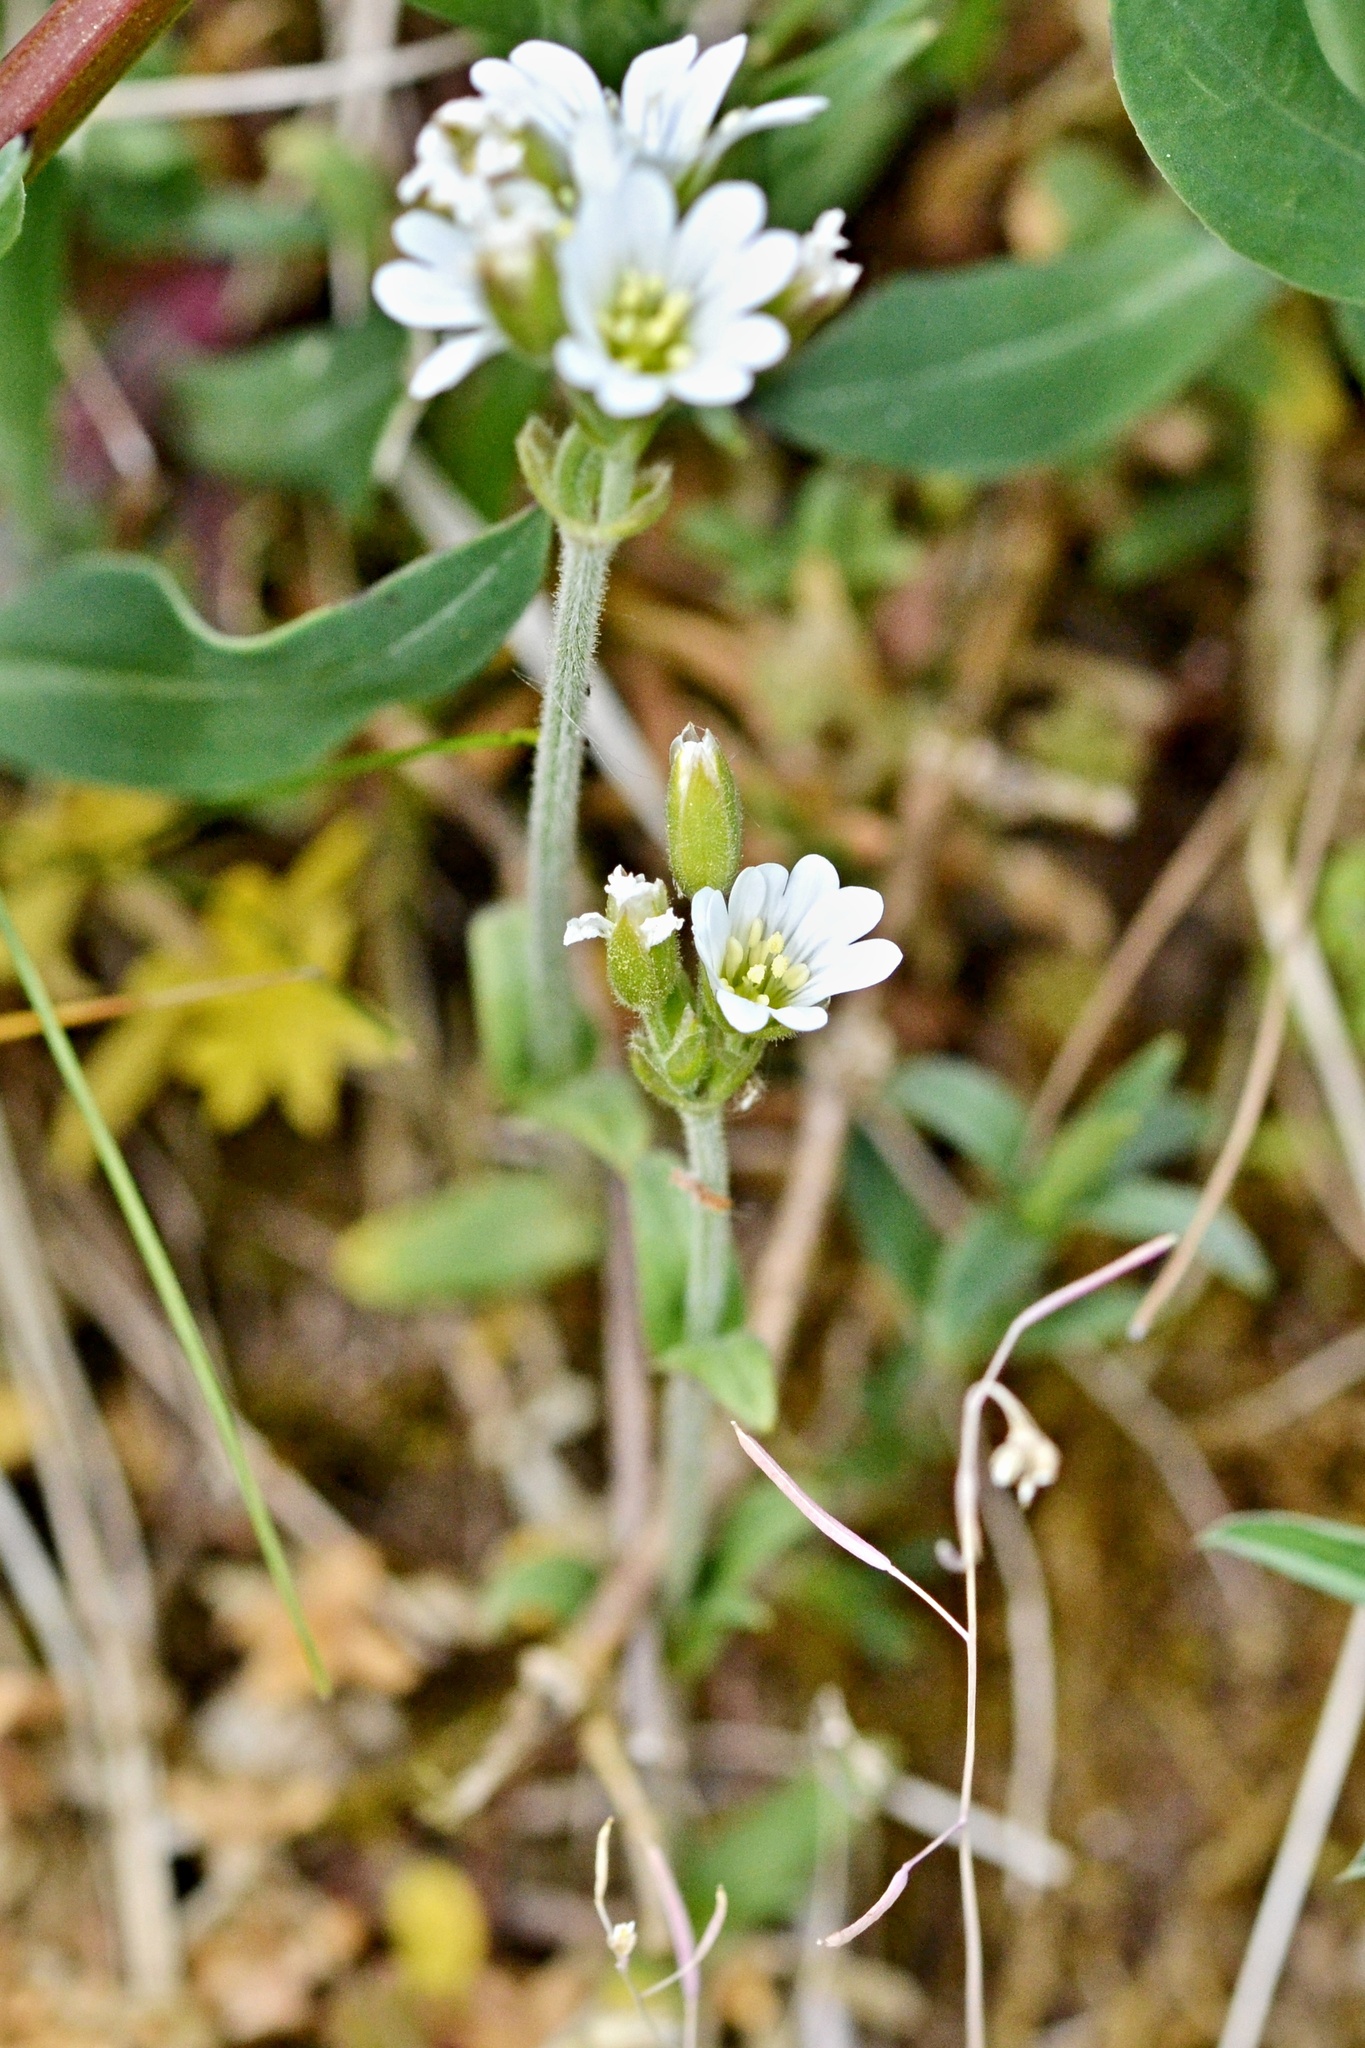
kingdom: Plantae
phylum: Tracheophyta
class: Magnoliopsida
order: Caryophyllales
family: Caryophyllaceae
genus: Cerastium
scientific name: Cerastium arvense
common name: Field mouse-ear
